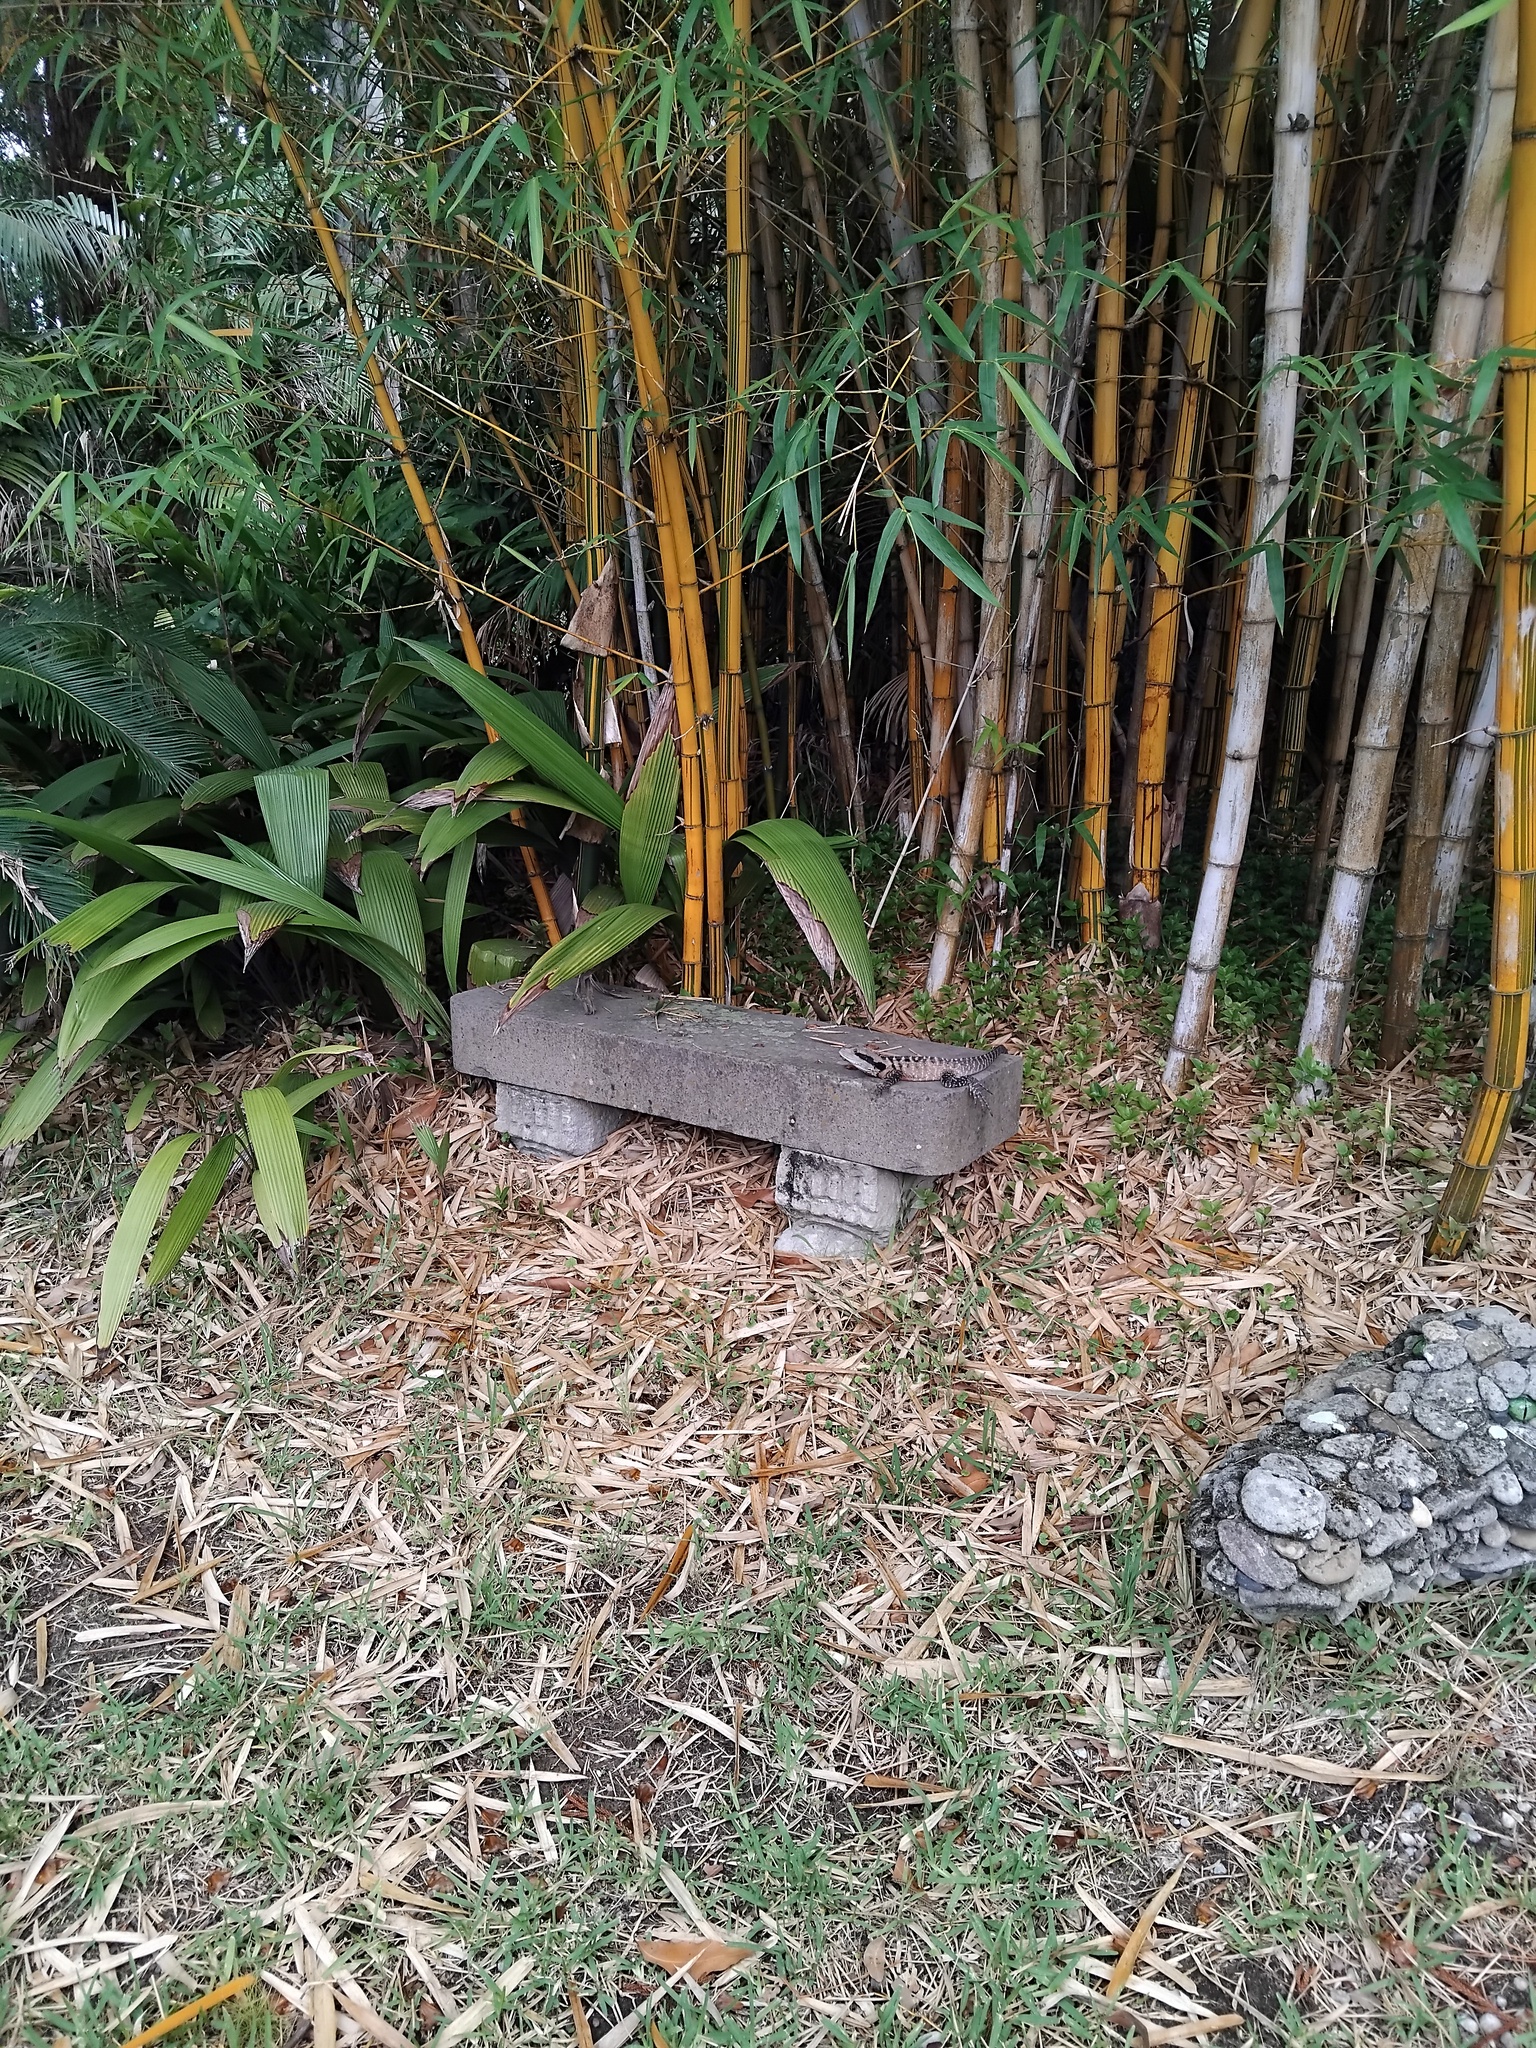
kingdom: Animalia
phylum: Chordata
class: Squamata
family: Agamidae
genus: Intellagama
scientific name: Intellagama lesueurii
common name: Eastern water dragon
